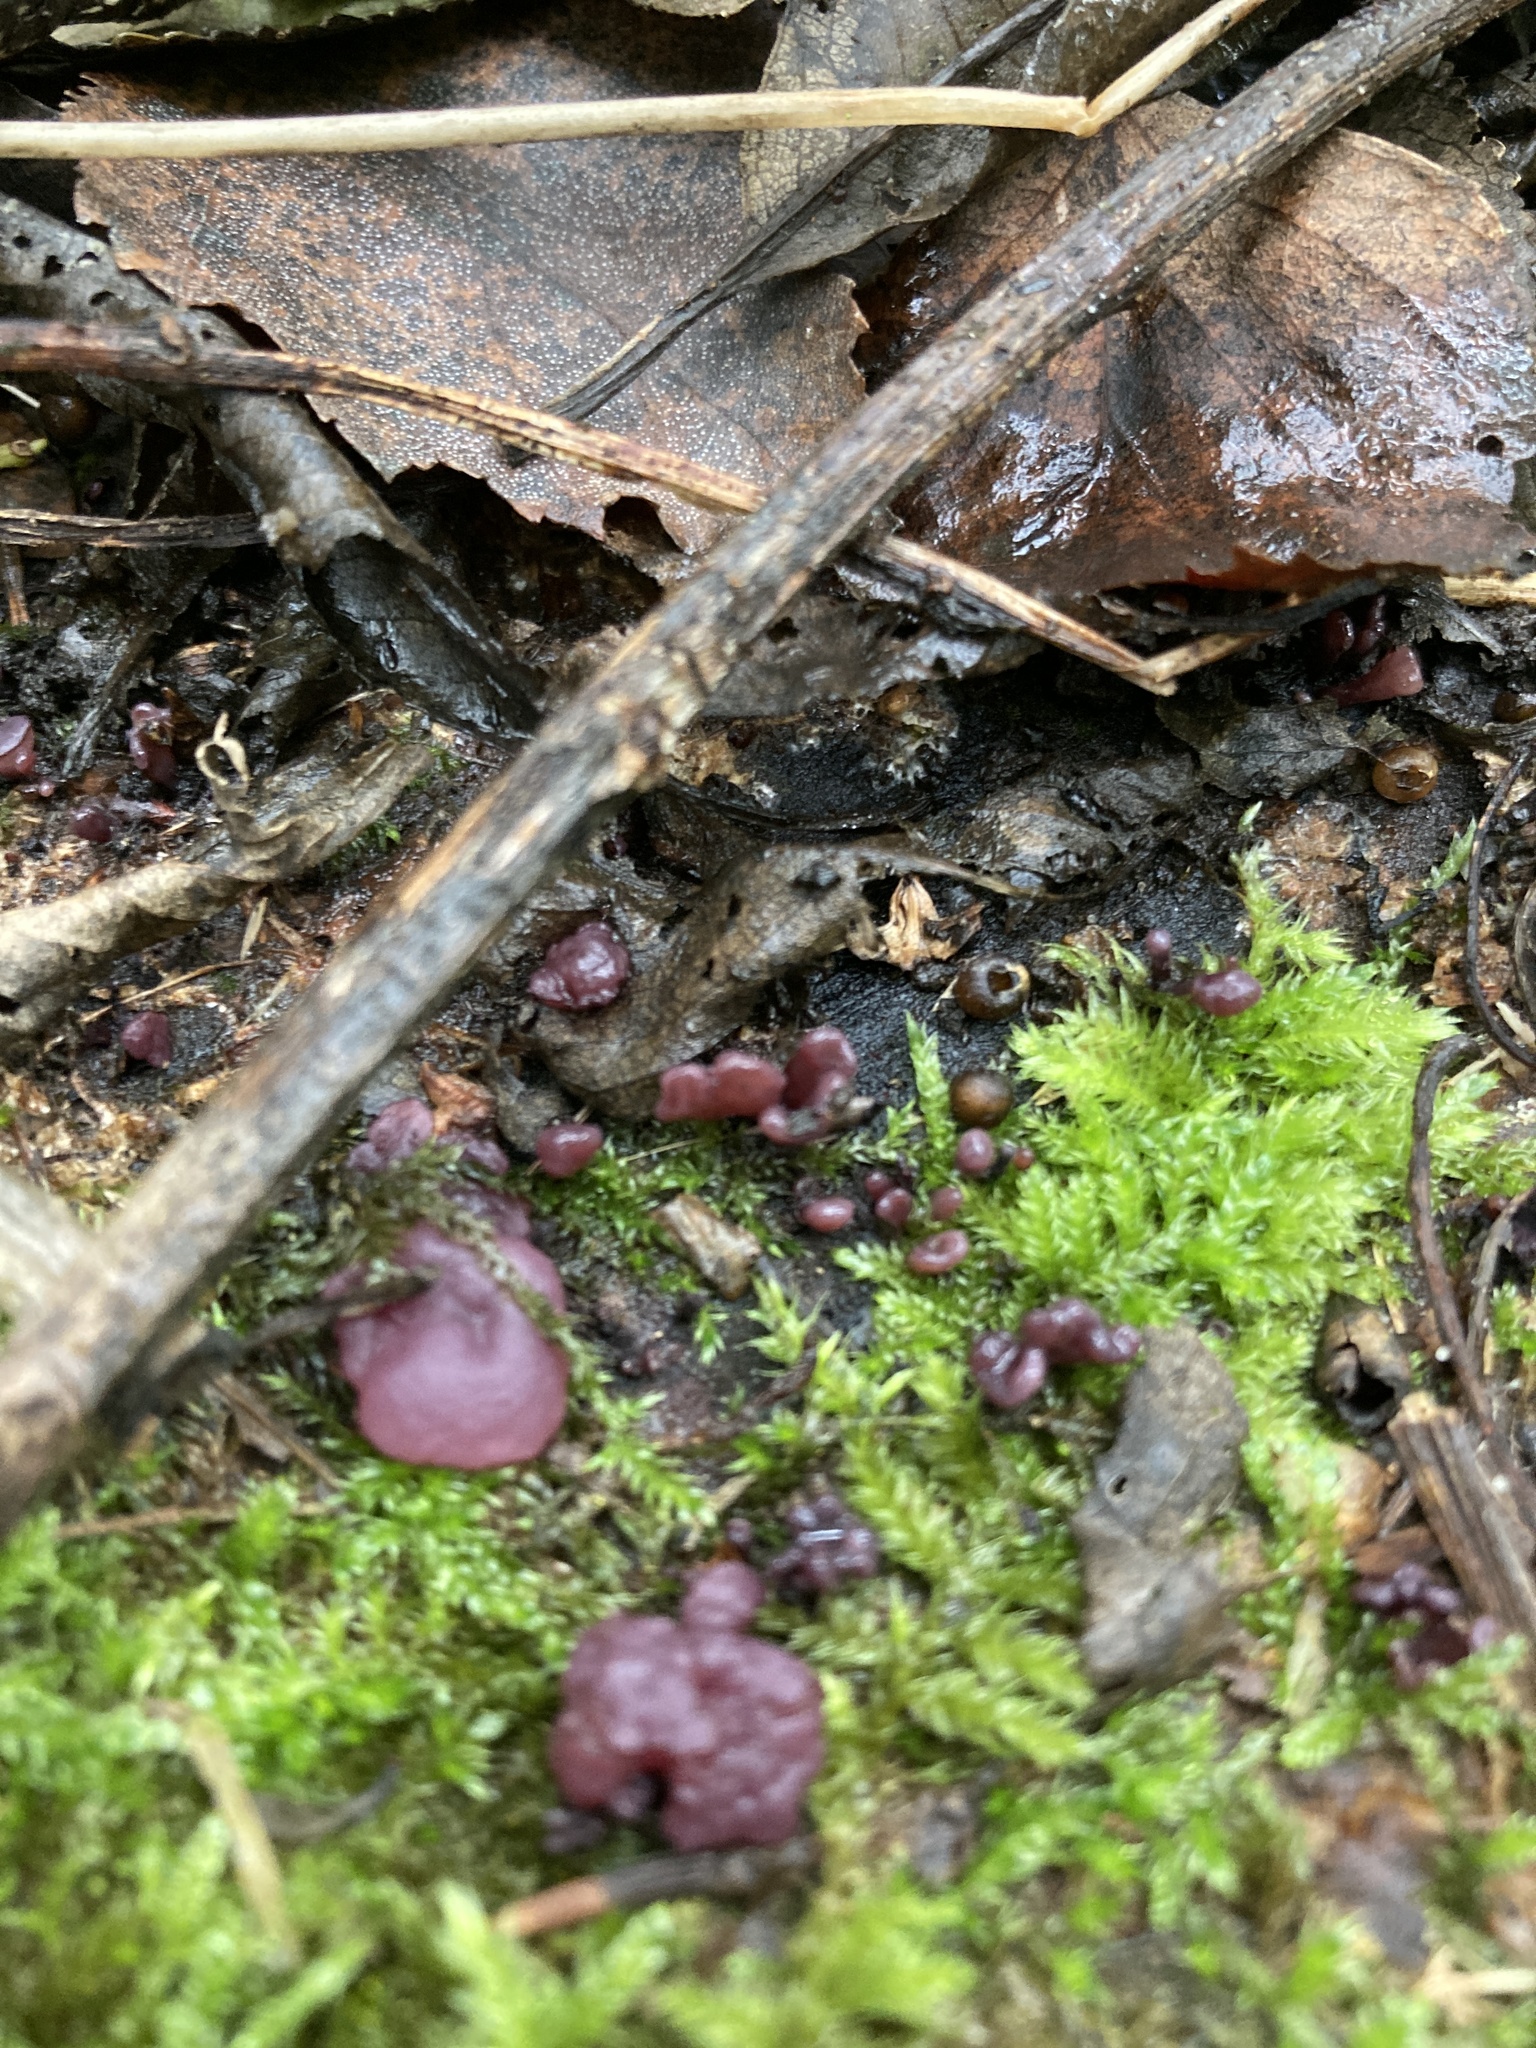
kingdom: Fungi
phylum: Ascomycota
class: Leotiomycetes
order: Helotiales
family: Gelatinodiscaceae
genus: Ascocoryne
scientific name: Ascocoryne sarcoides
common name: Purple jellydisc
